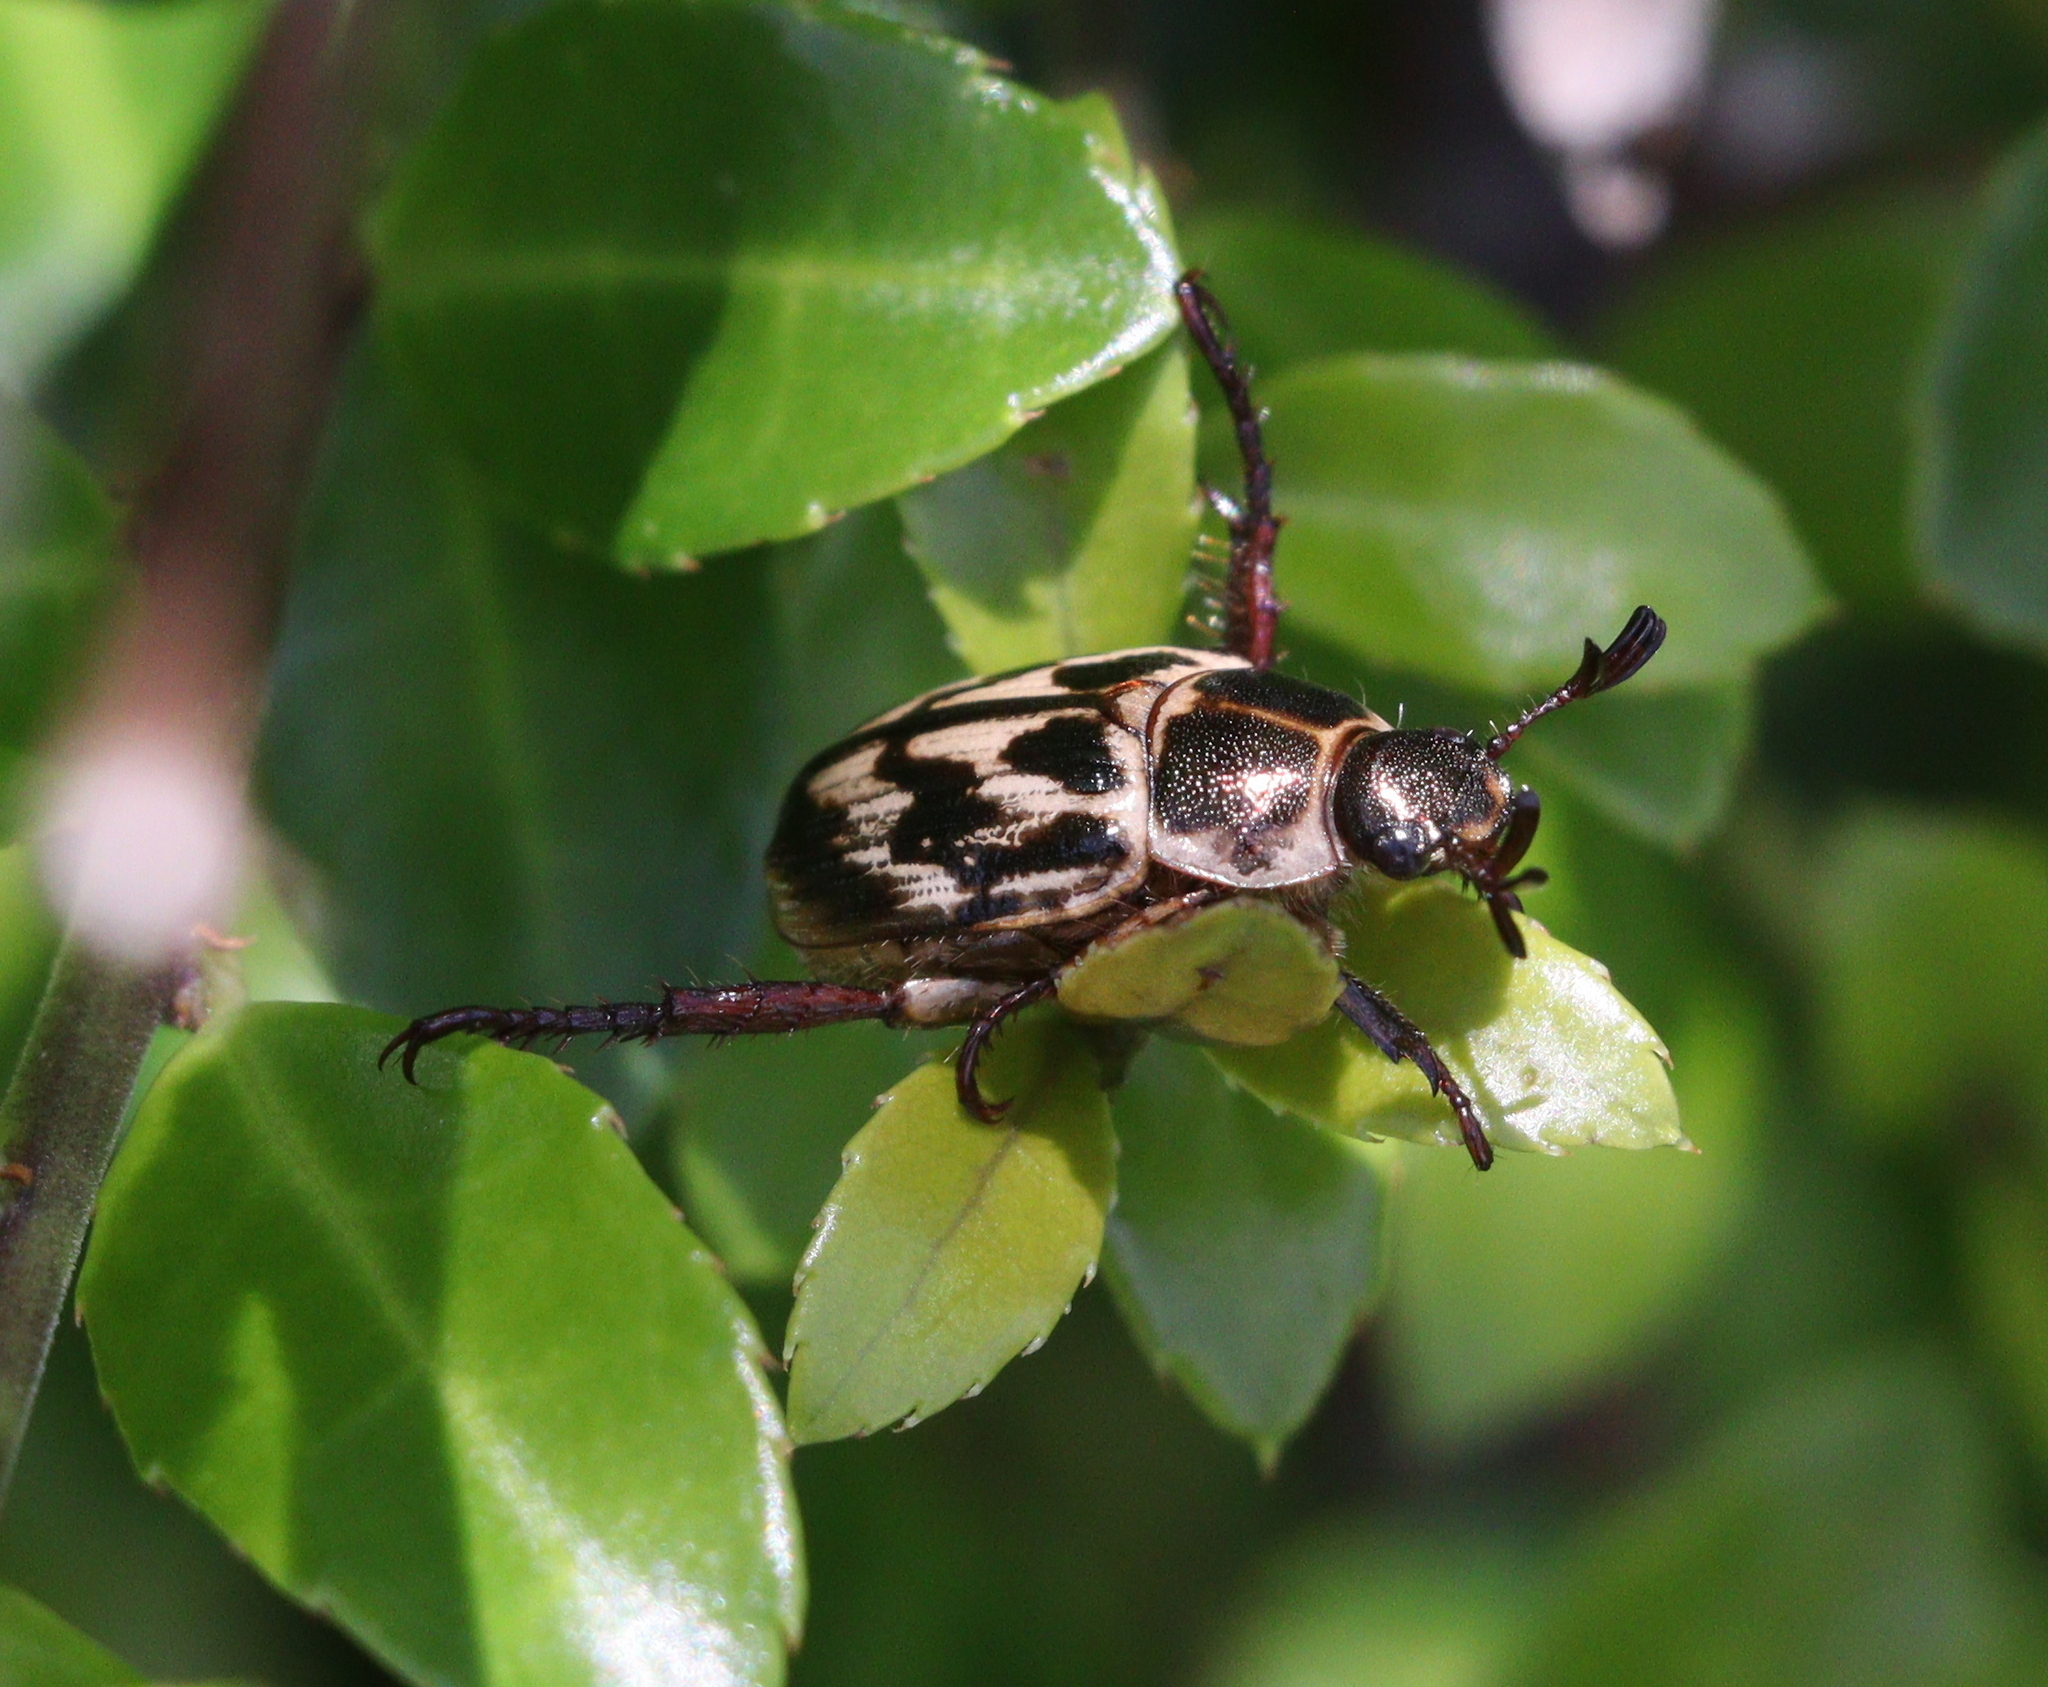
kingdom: Animalia
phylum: Arthropoda
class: Insecta
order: Coleoptera
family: Scarabaeidae
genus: Exomala
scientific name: Exomala orientalis
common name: Oriental beetle
